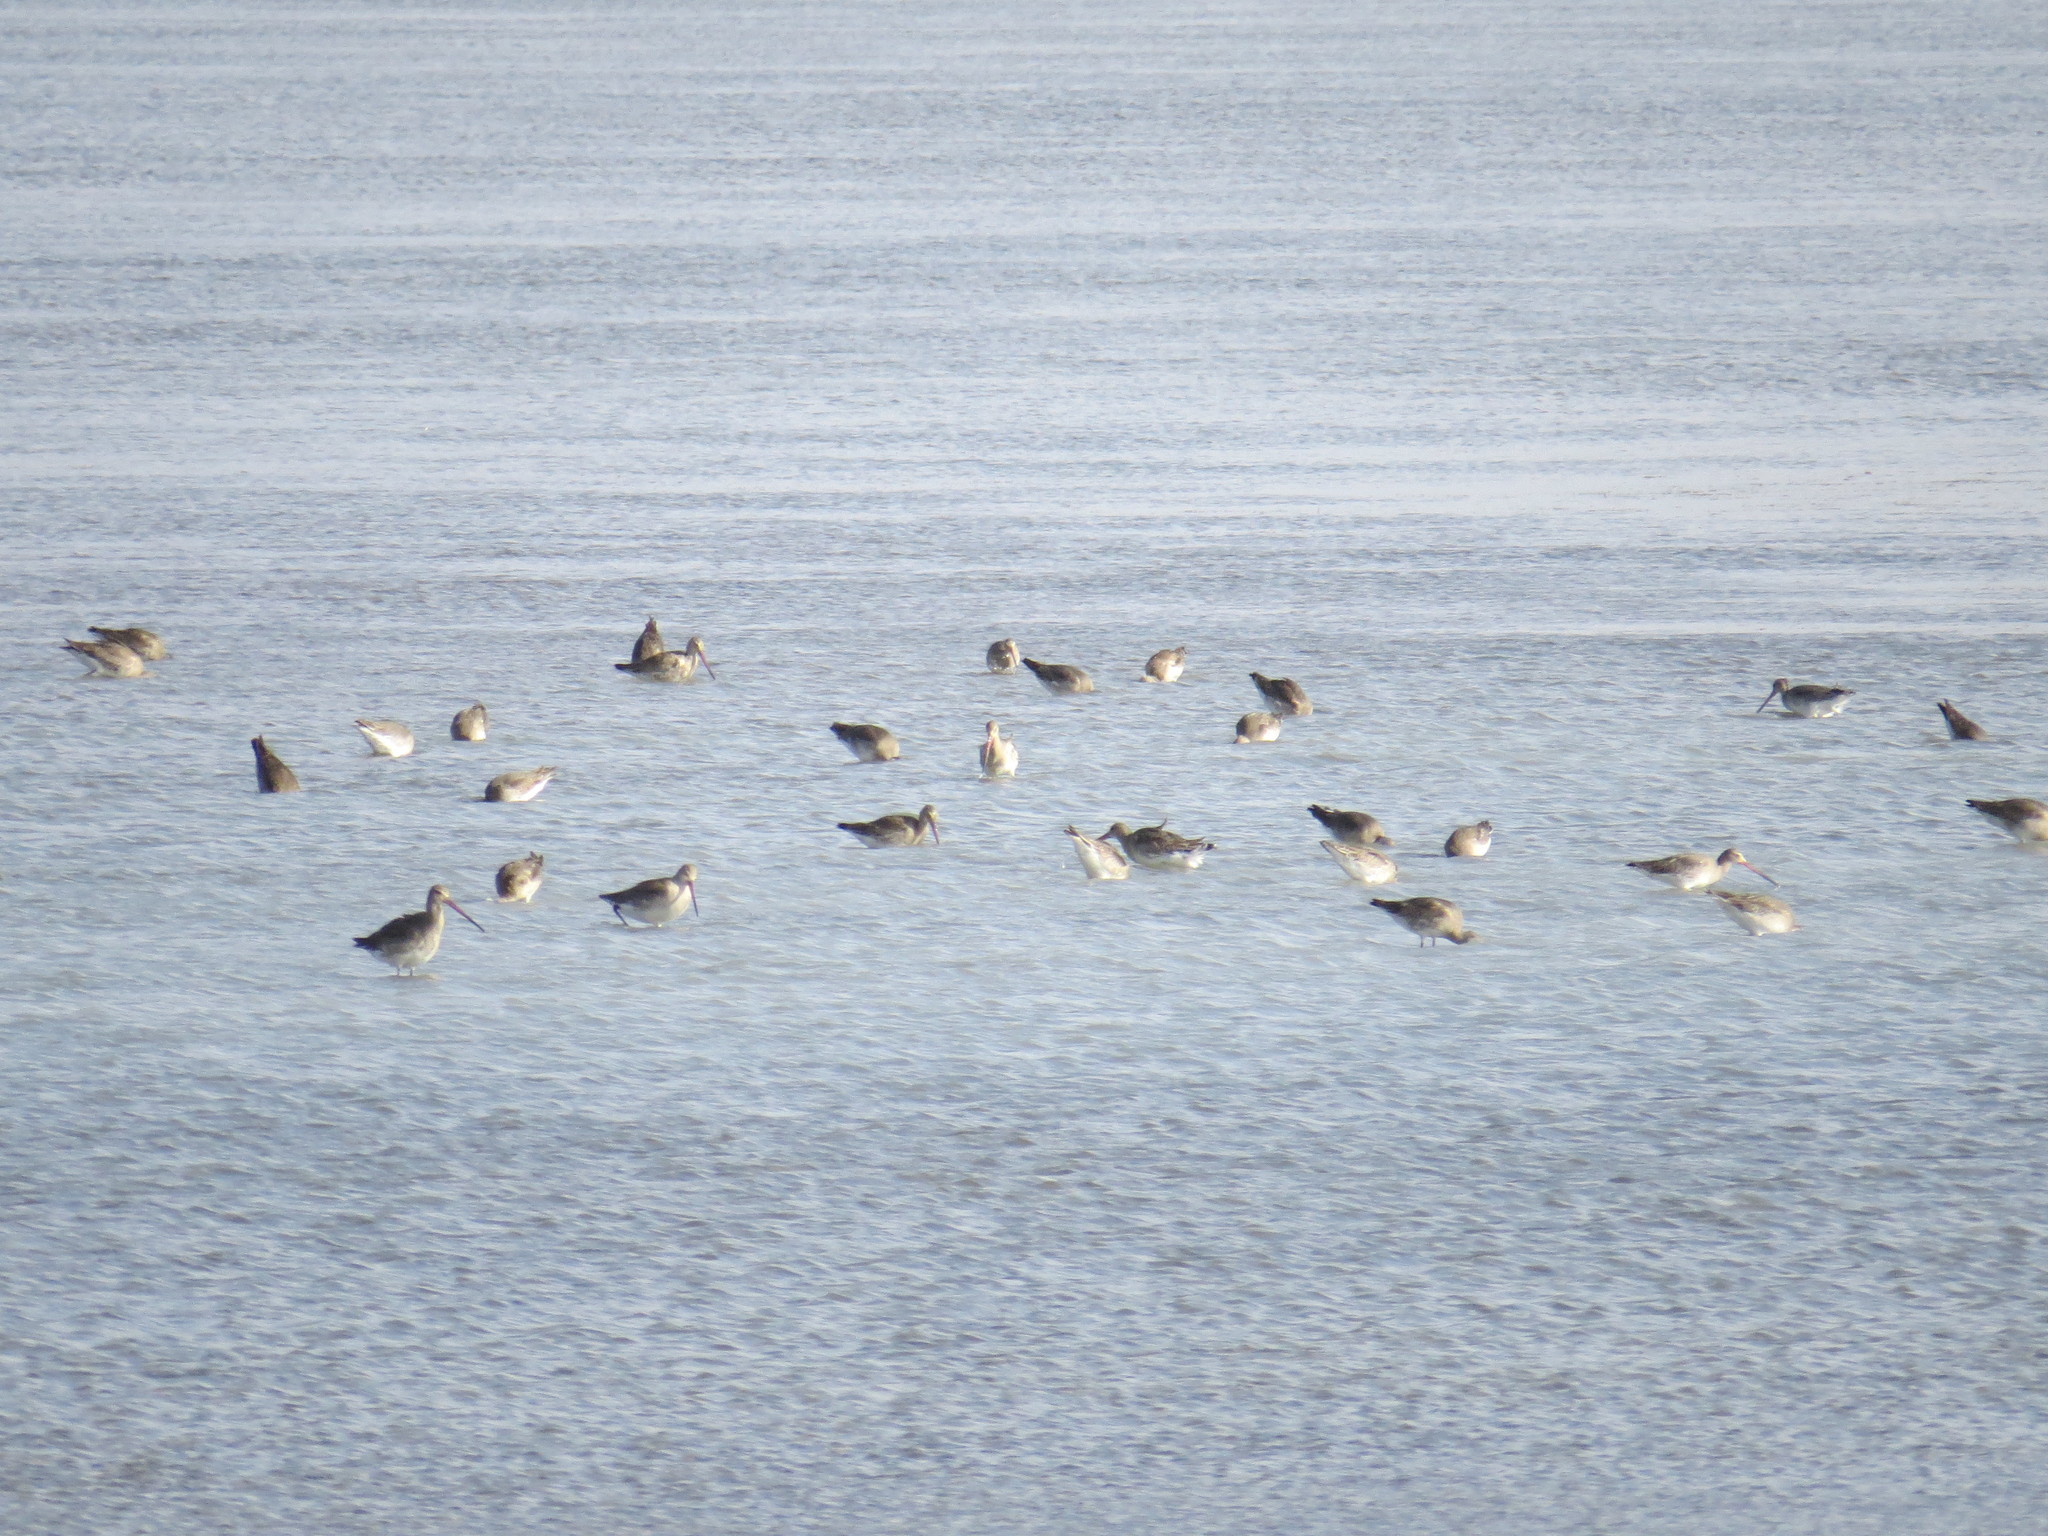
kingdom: Animalia
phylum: Chordata
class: Aves
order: Charadriiformes
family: Scolopacidae
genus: Limosa
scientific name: Limosa limosa
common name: Black-tailed godwit
